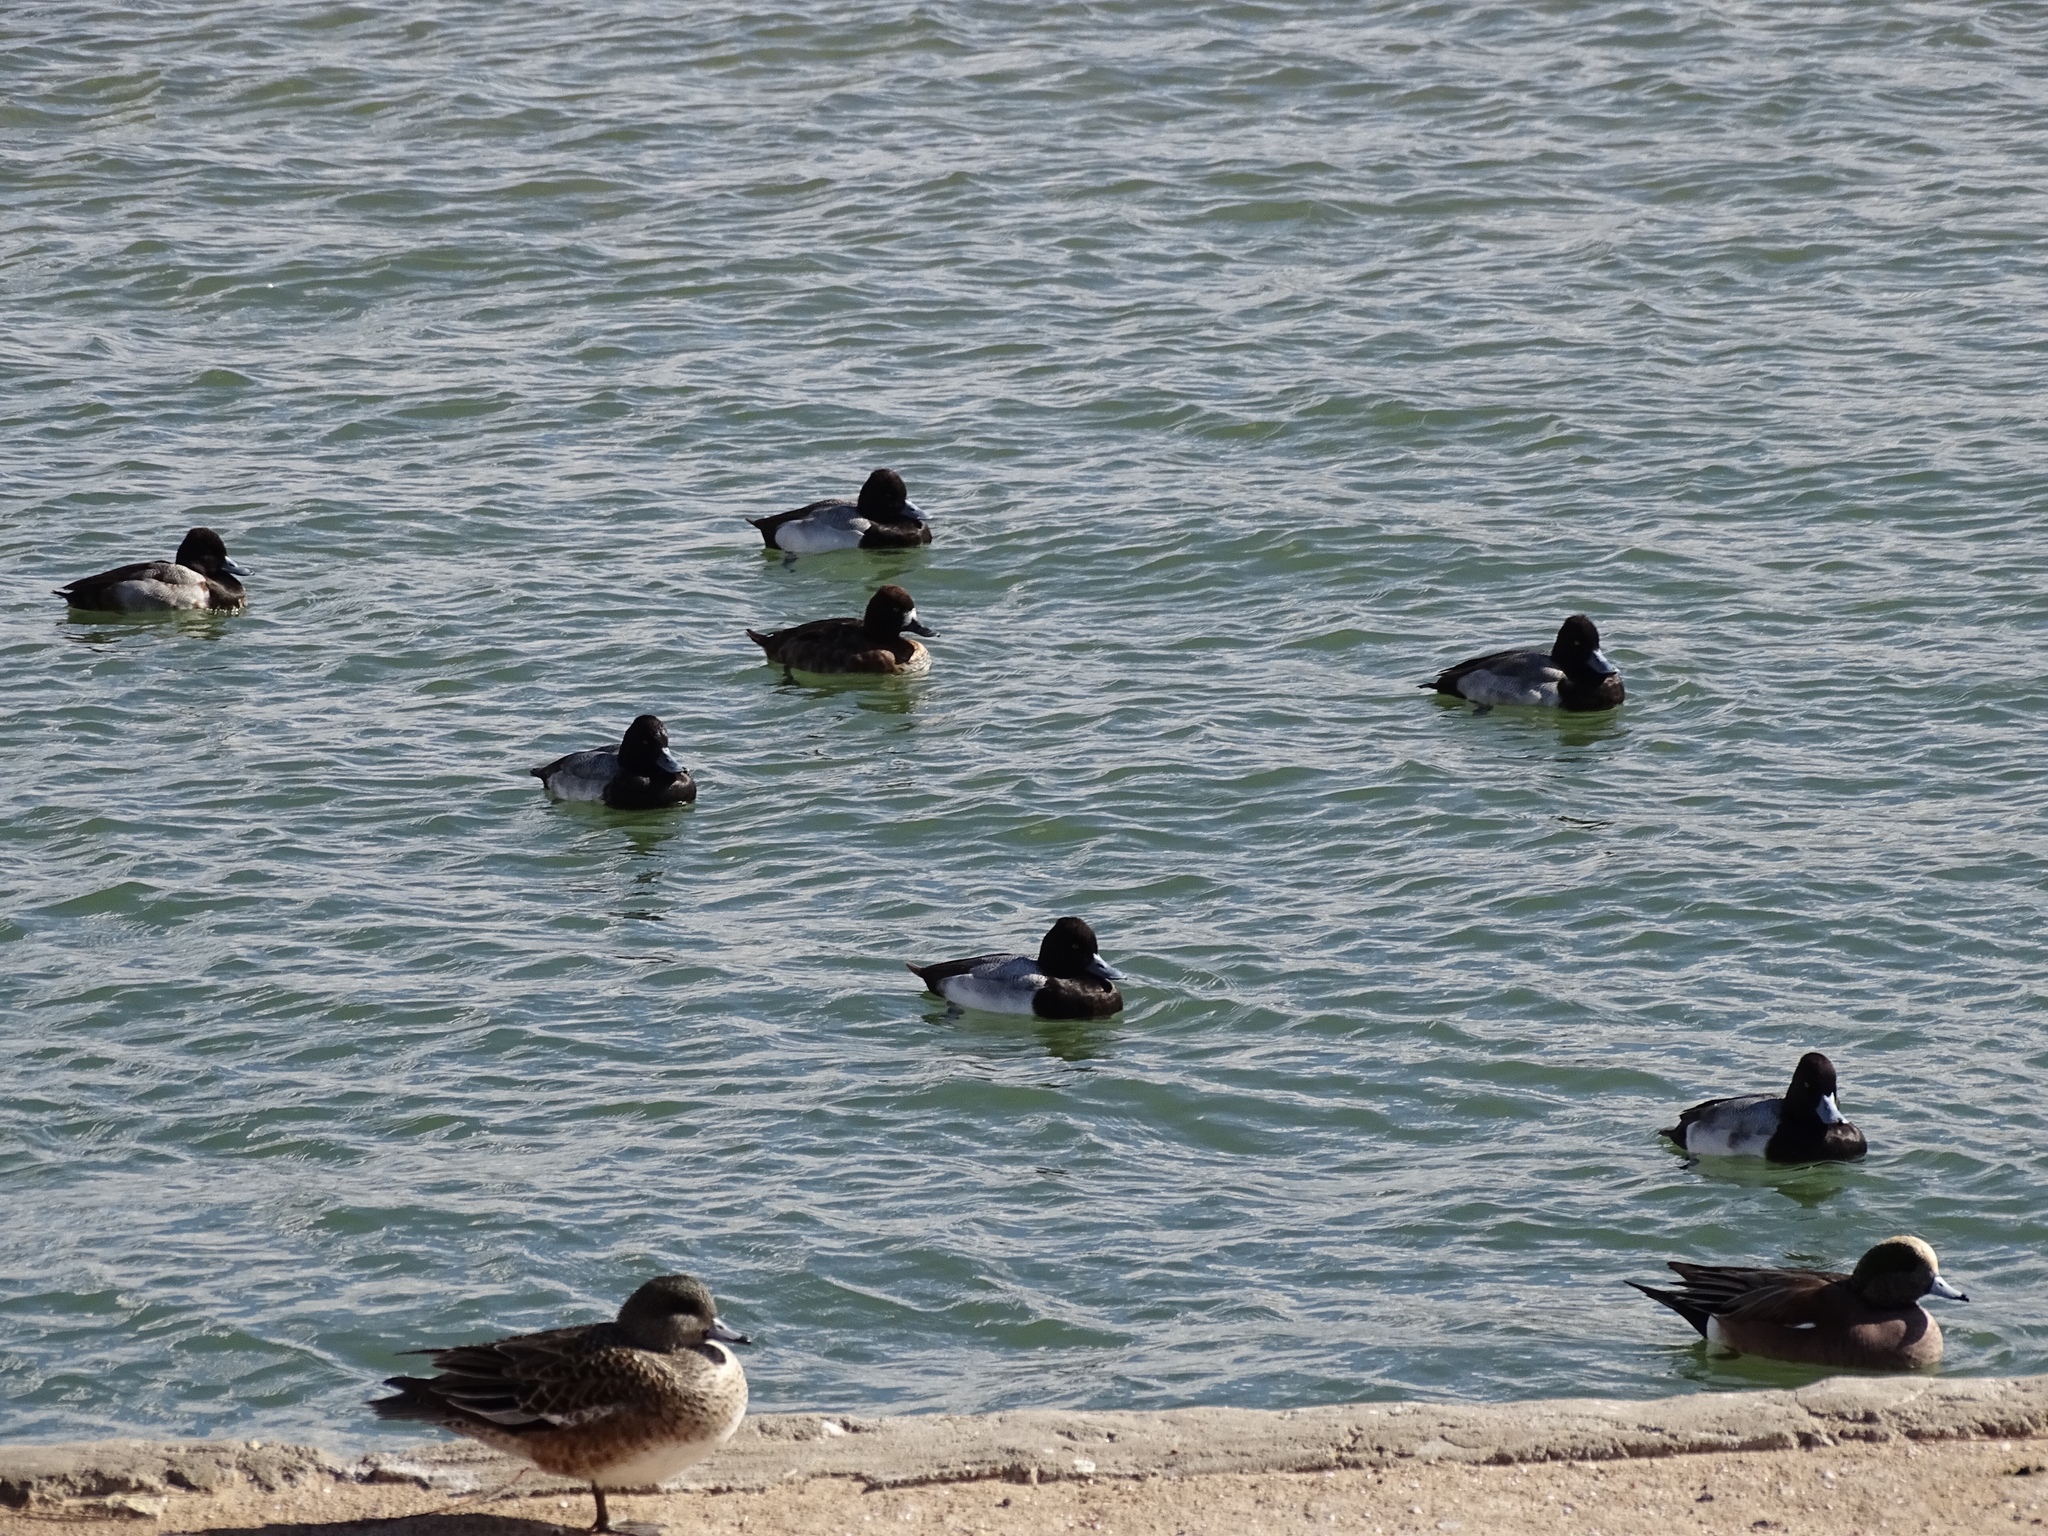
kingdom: Animalia
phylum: Chordata
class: Aves
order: Anseriformes
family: Anatidae
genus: Aythya
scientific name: Aythya collaris
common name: Ring-necked duck
